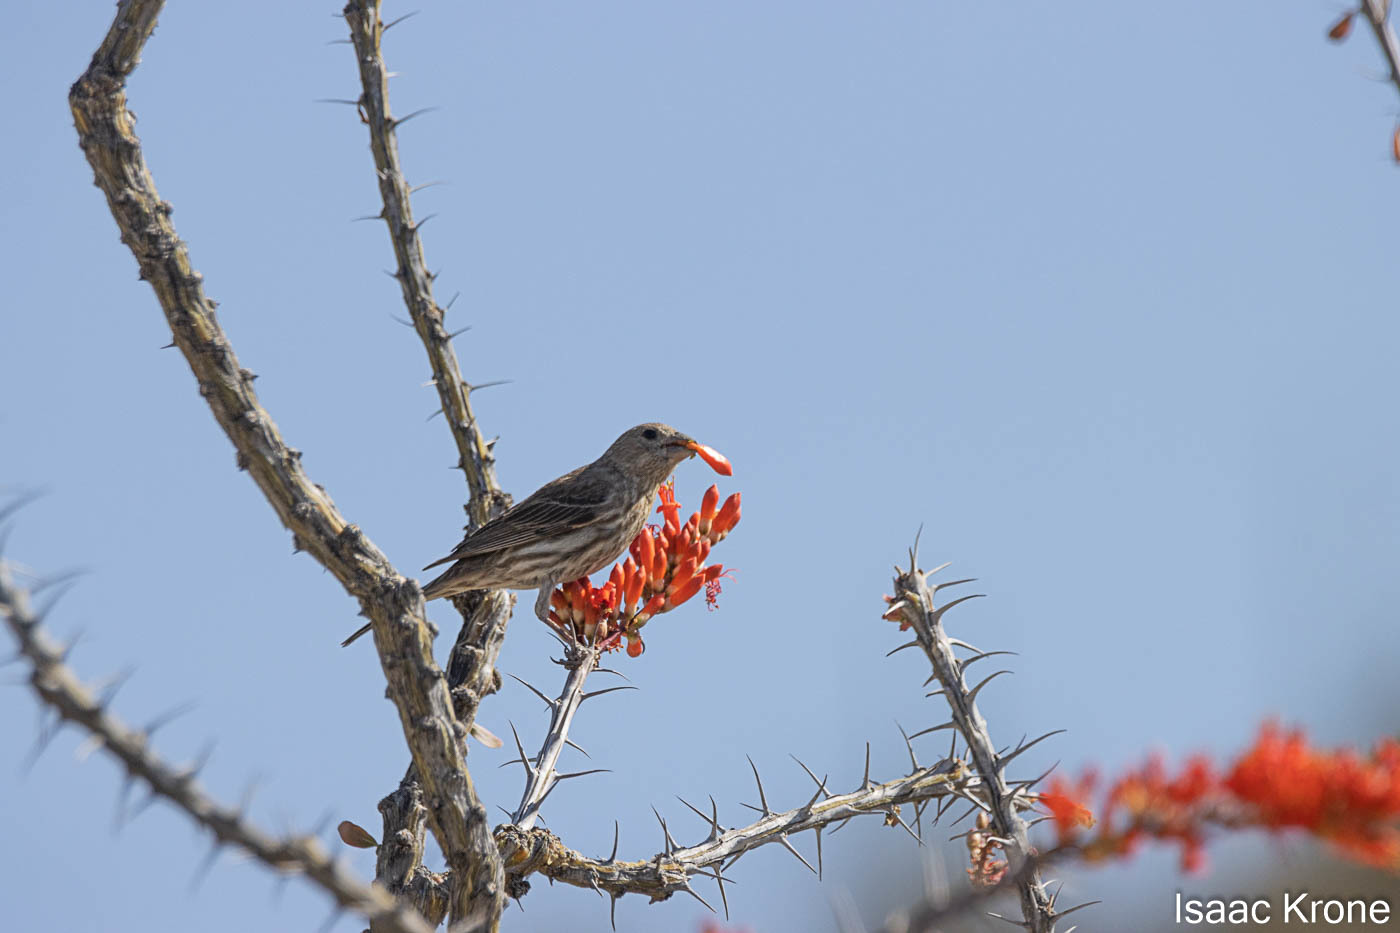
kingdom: Animalia
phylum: Chordata
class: Aves
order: Passeriformes
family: Fringillidae
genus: Haemorhous
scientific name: Haemorhous mexicanus
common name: House finch
